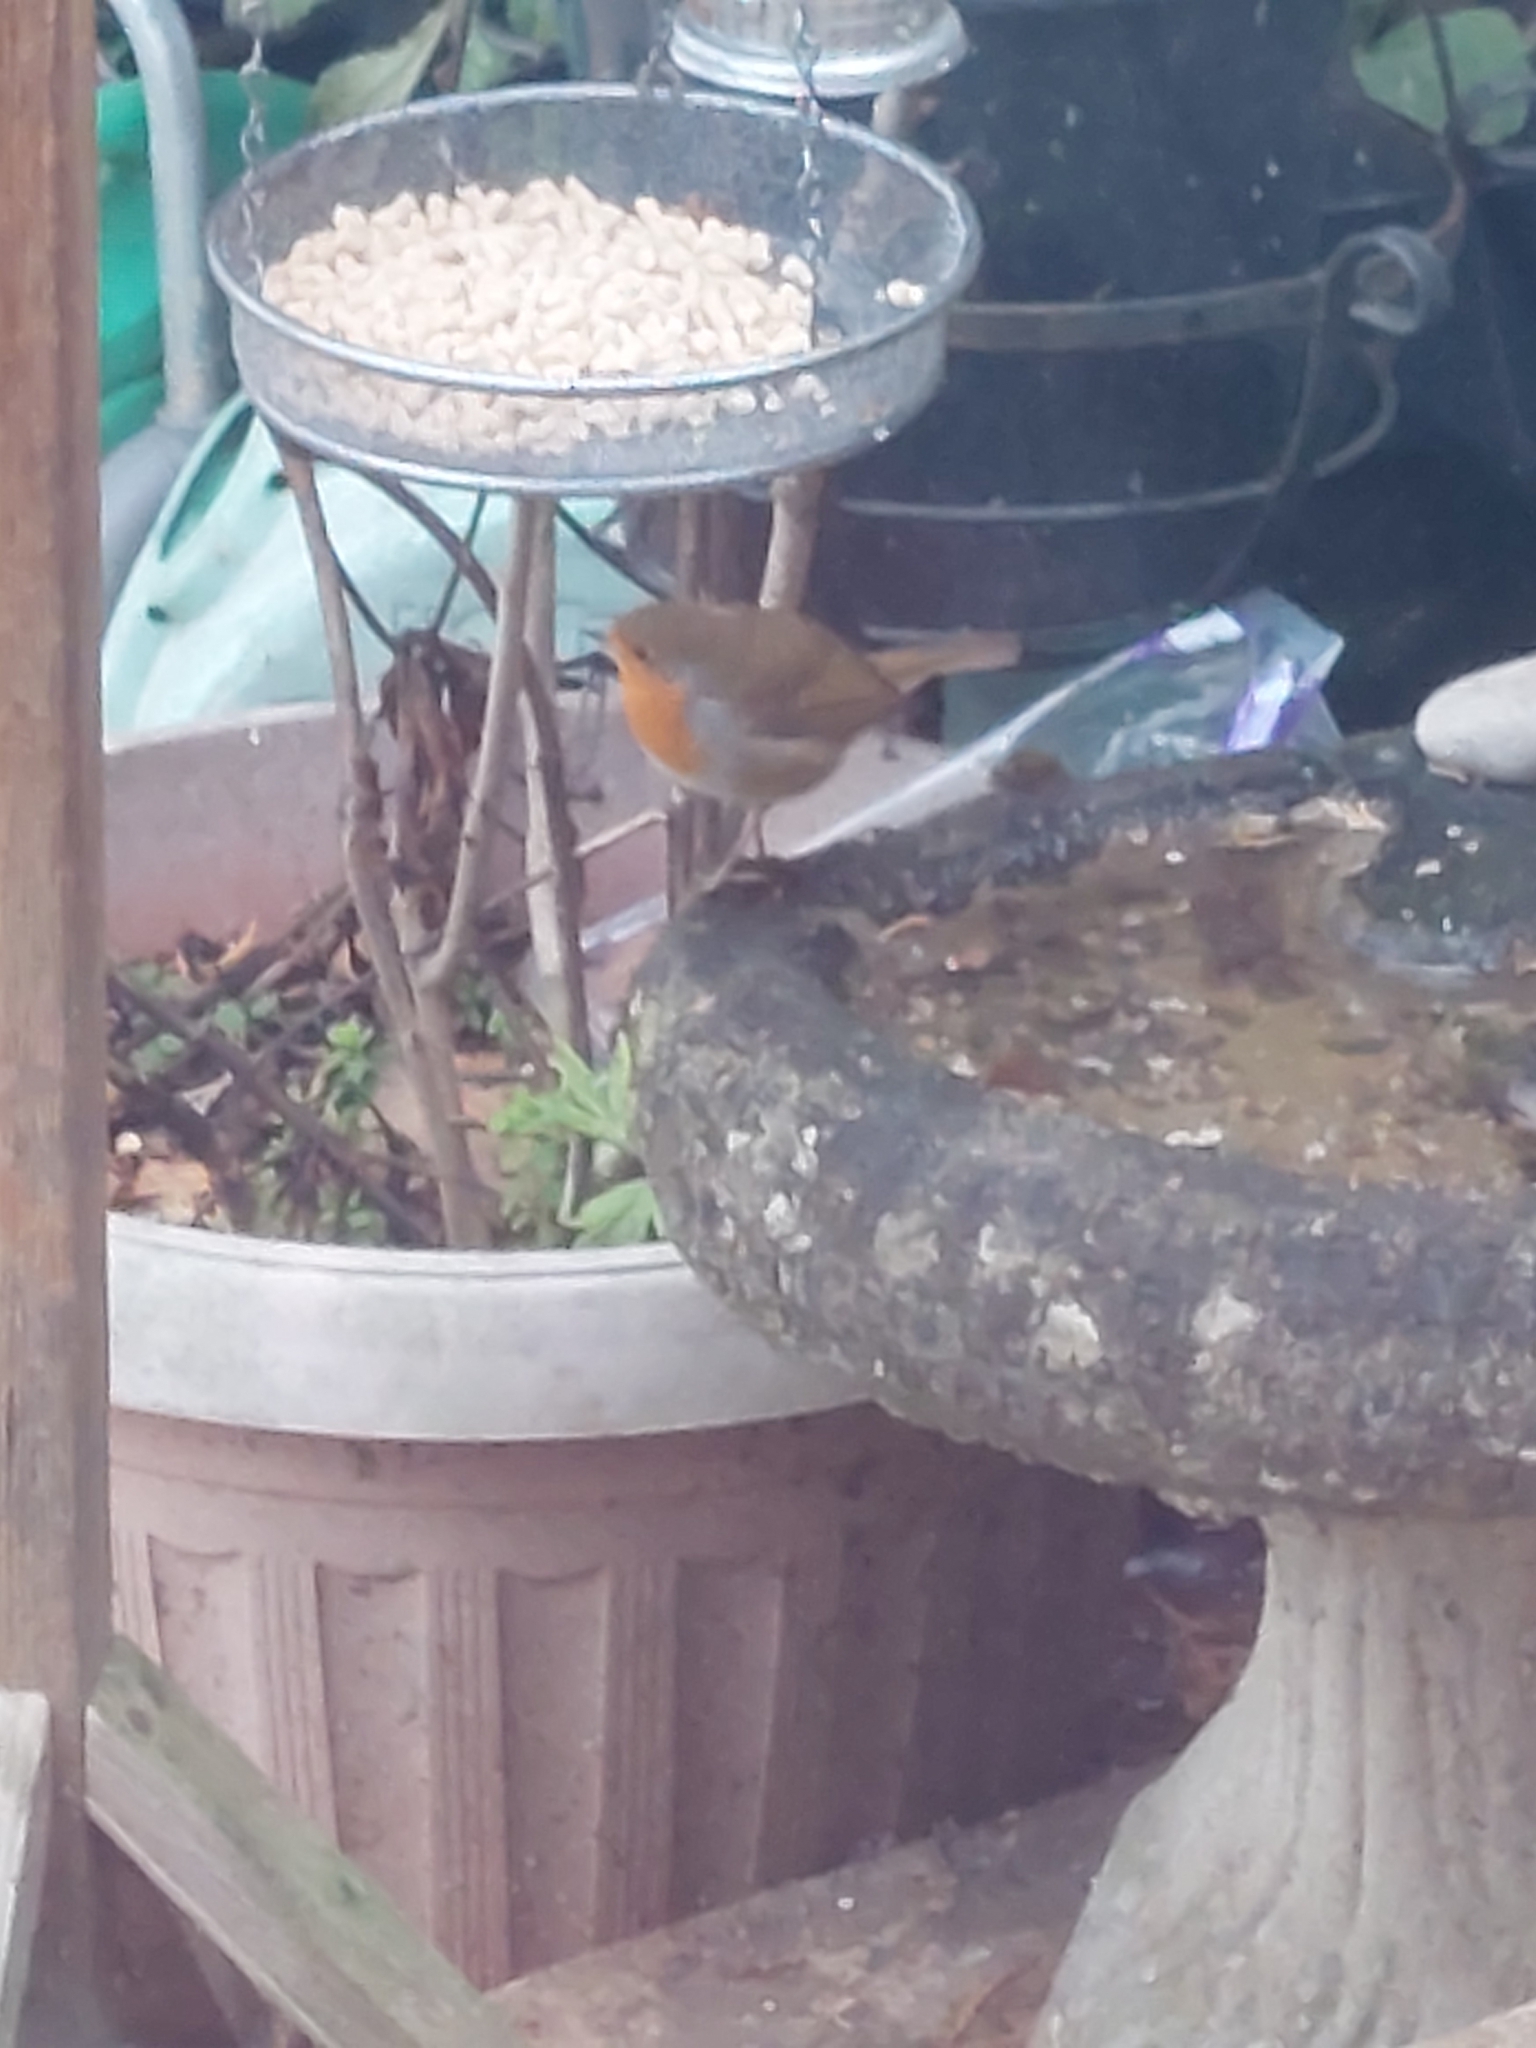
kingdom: Animalia
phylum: Chordata
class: Aves
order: Passeriformes
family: Muscicapidae
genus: Erithacus
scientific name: Erithacus rubecula
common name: European robin
